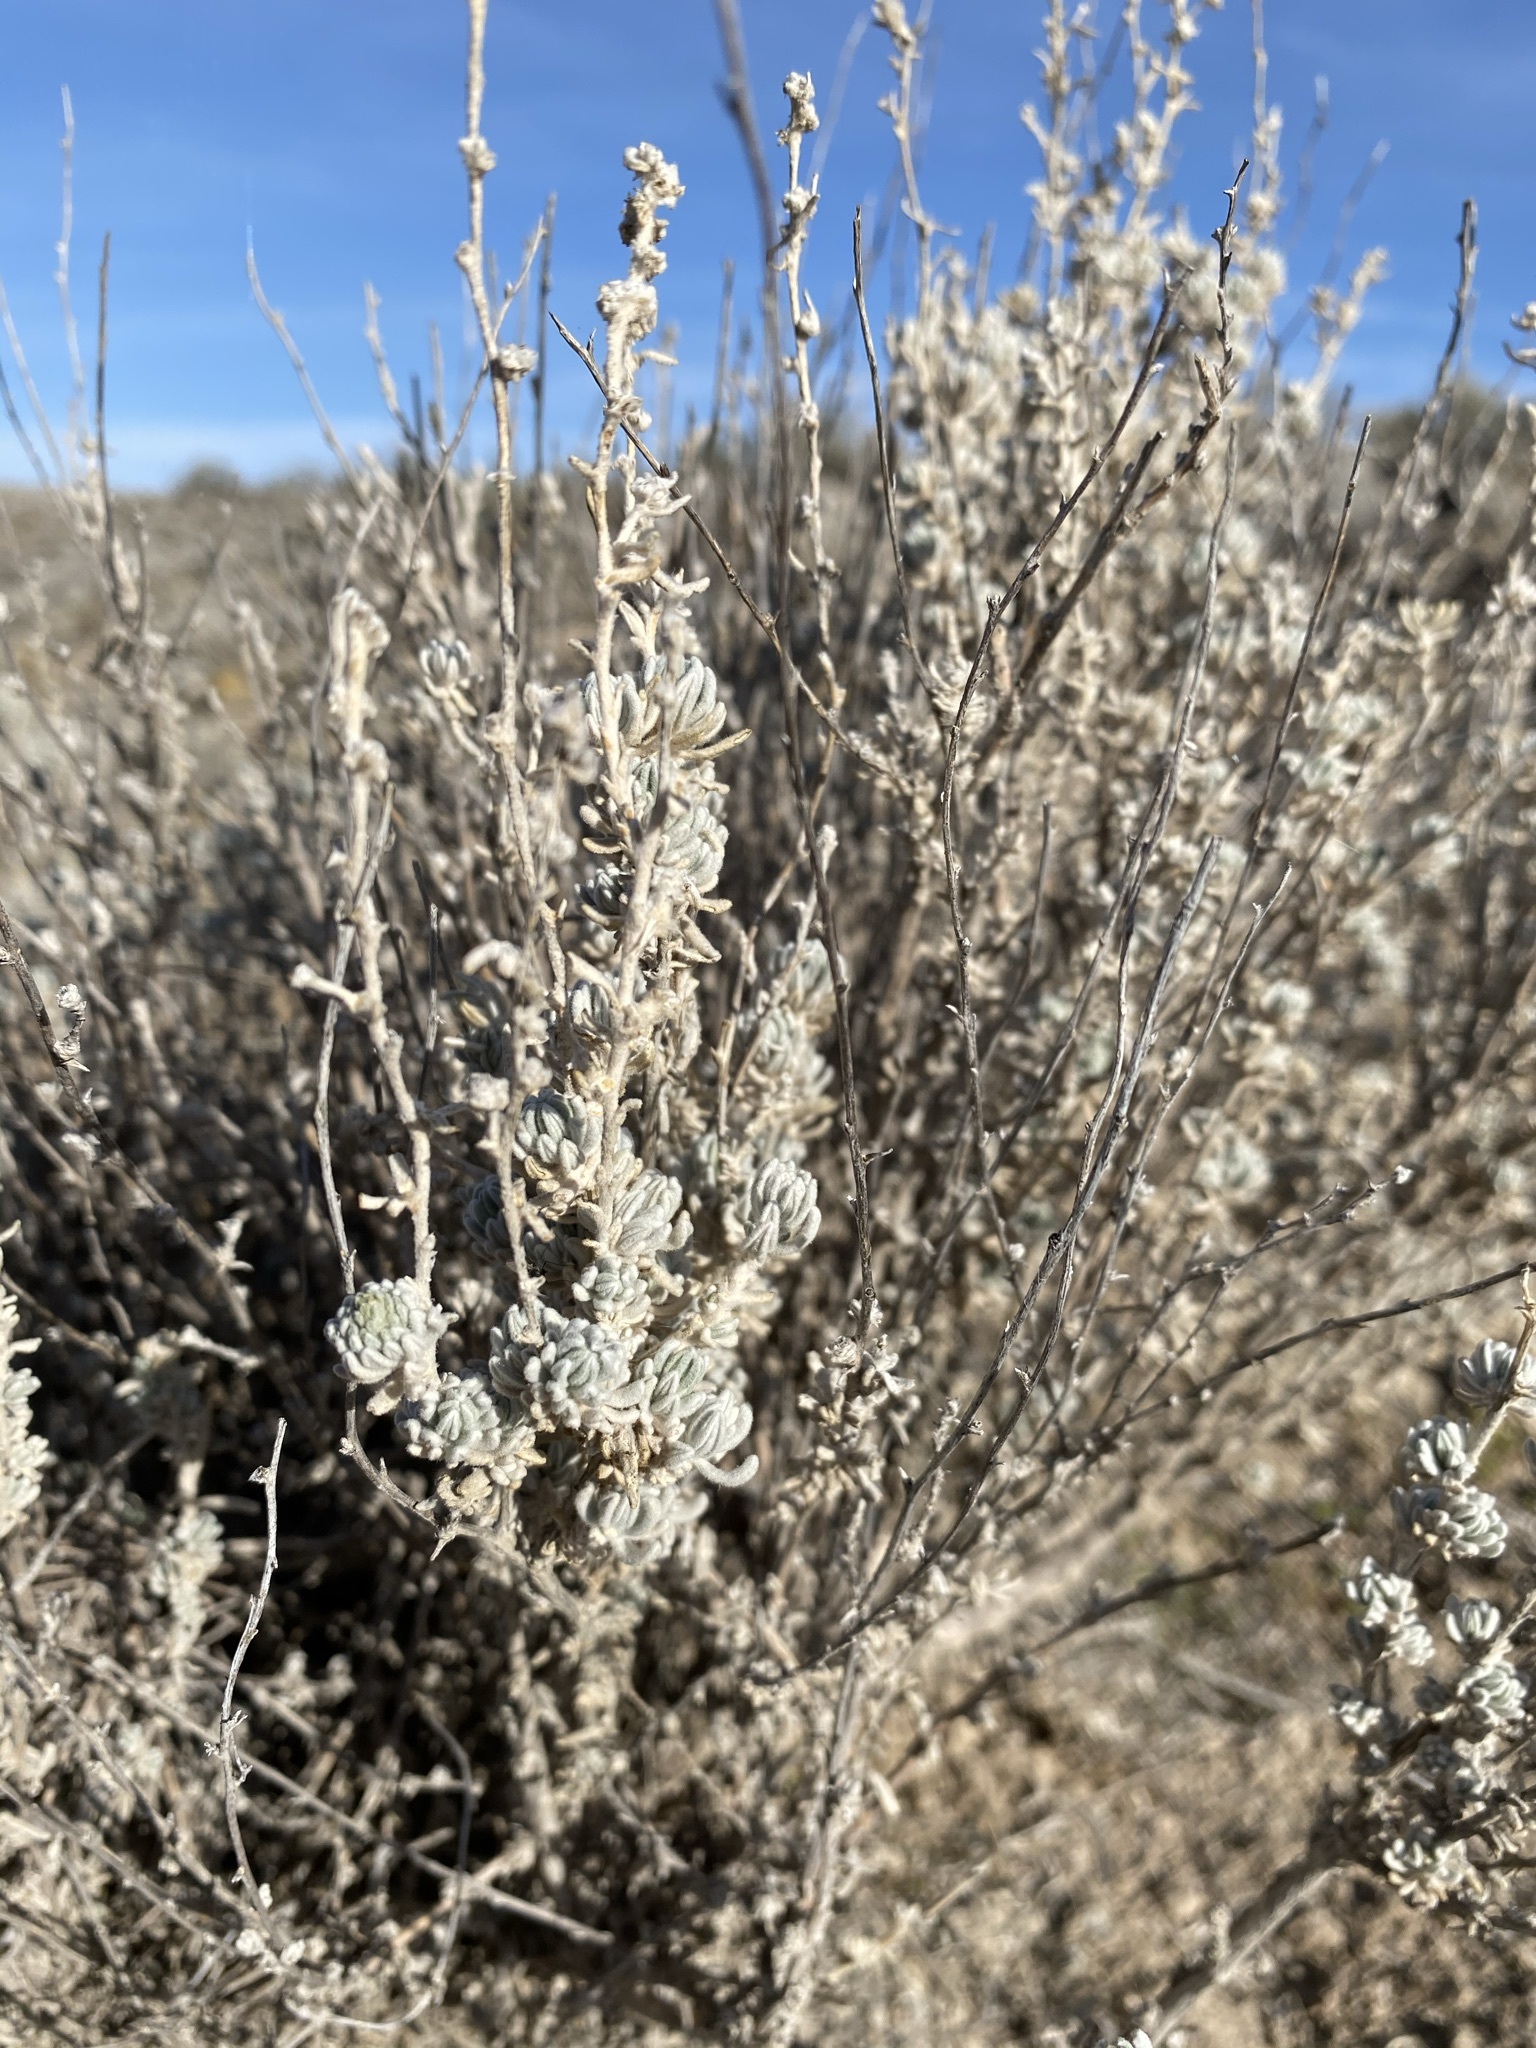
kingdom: Plantae
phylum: Tracheophyta
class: Magnoliopsida
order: Caryophyllales
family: Amaranthaceae
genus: Krascheninnikovia
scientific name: Krascheninnikovia lanata
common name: Winterfat
